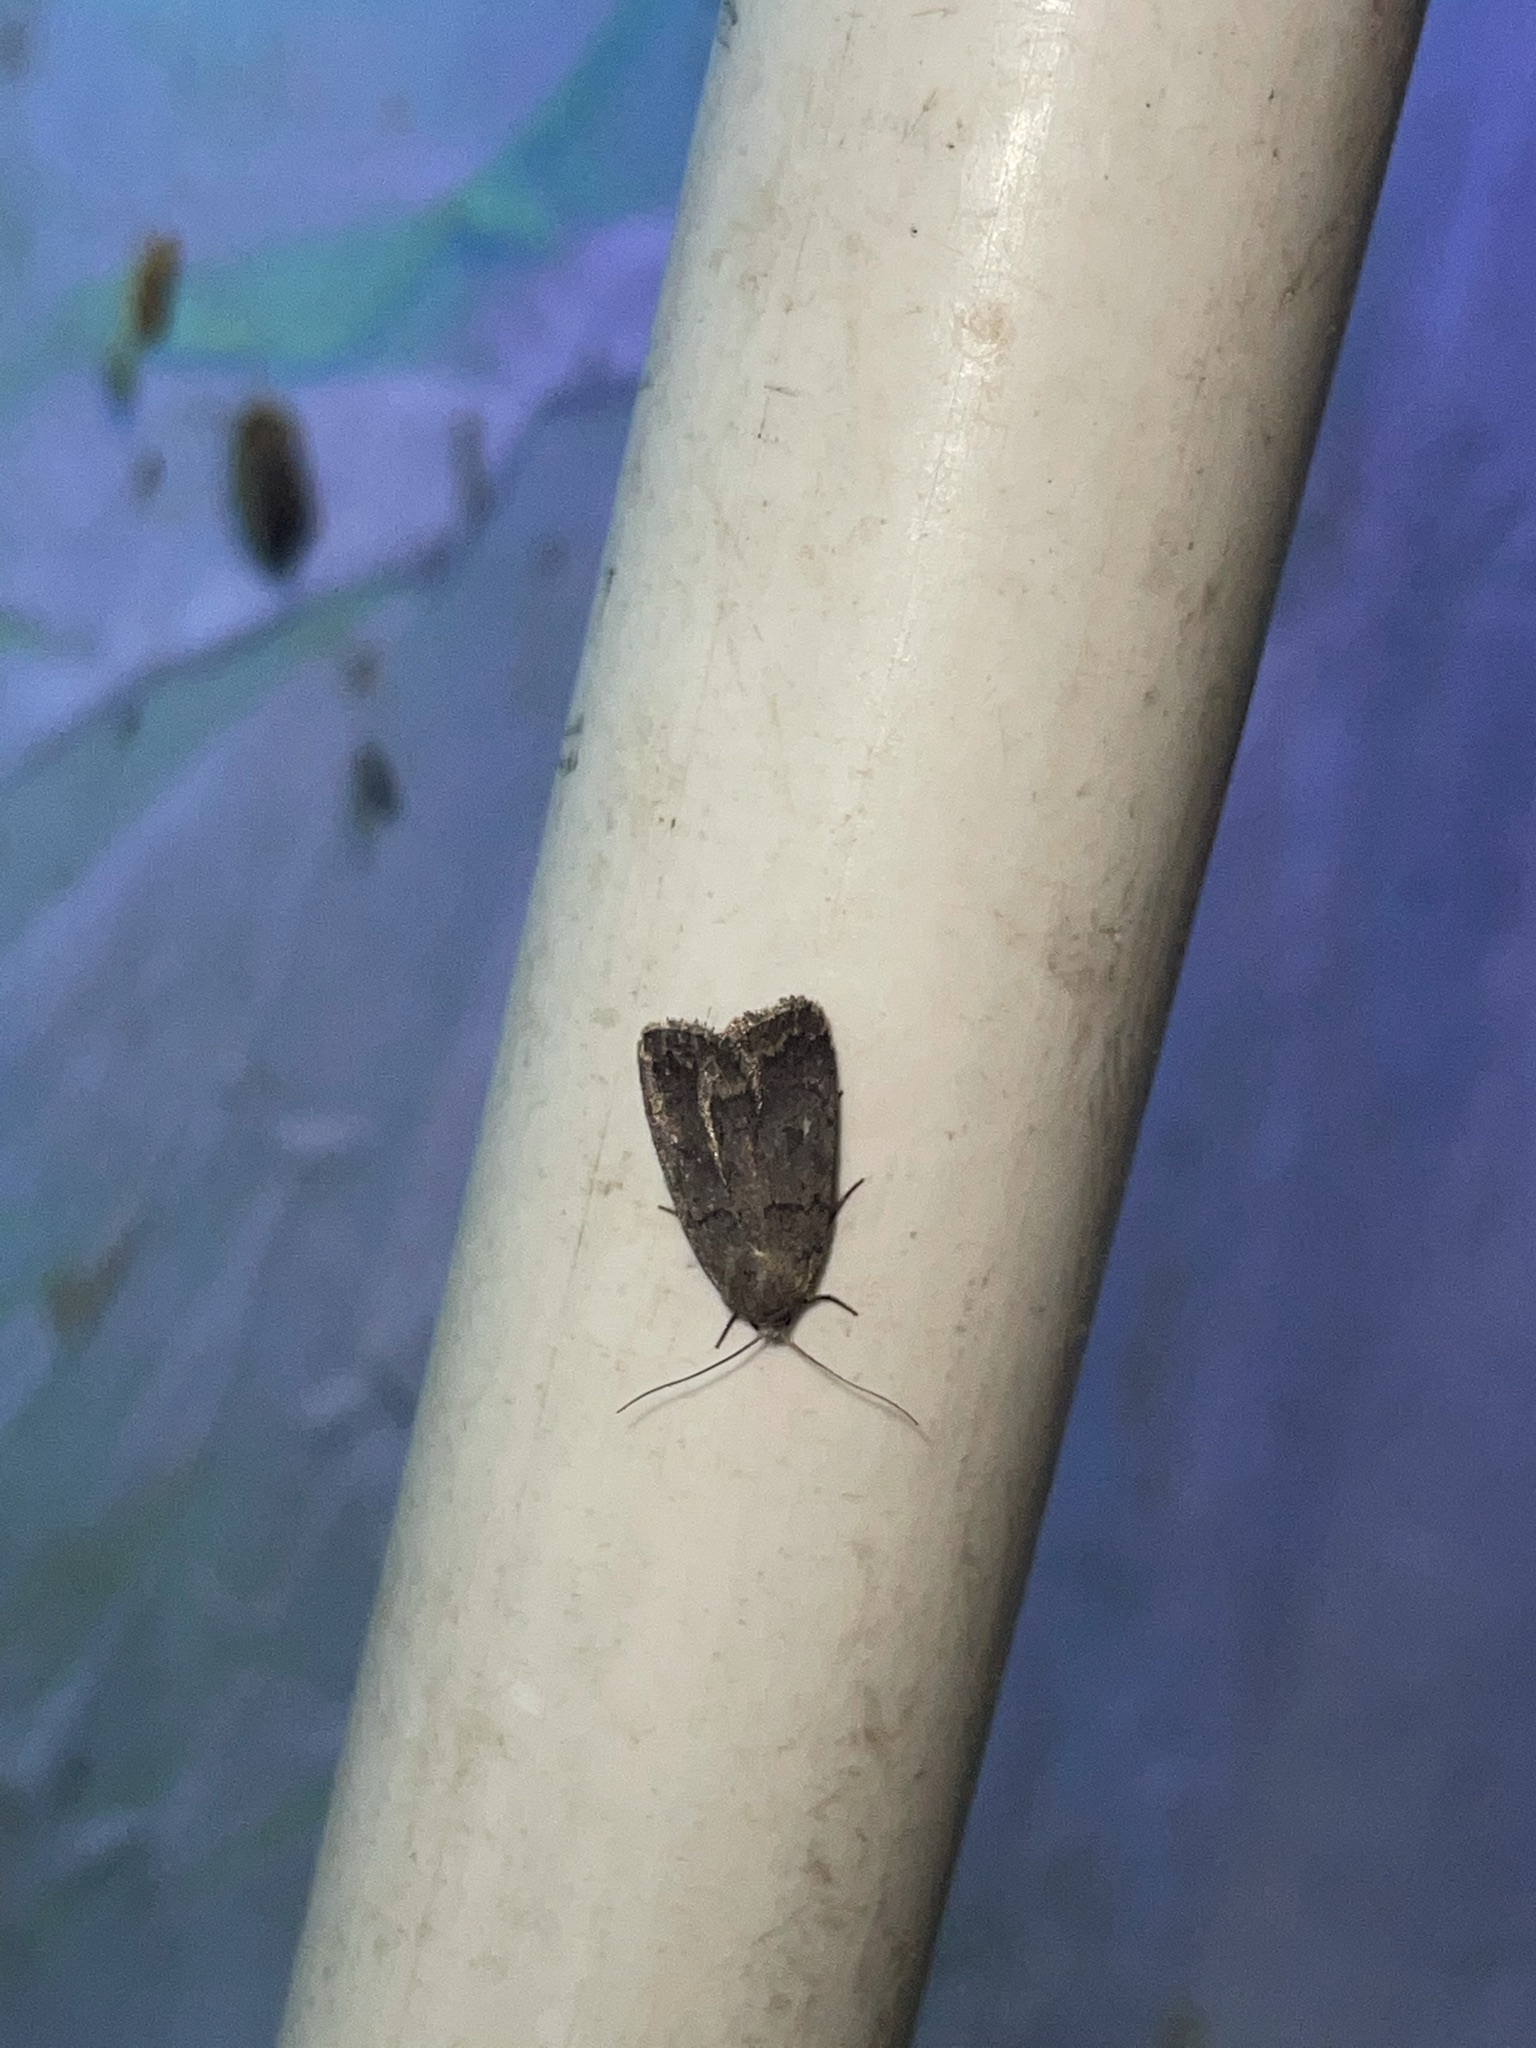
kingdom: Animalia
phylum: Arthropoda
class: Insecta
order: Lepidoptera
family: Noctuidae
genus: Athetis
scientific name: Athetis tarda
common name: Slowpoke moth
